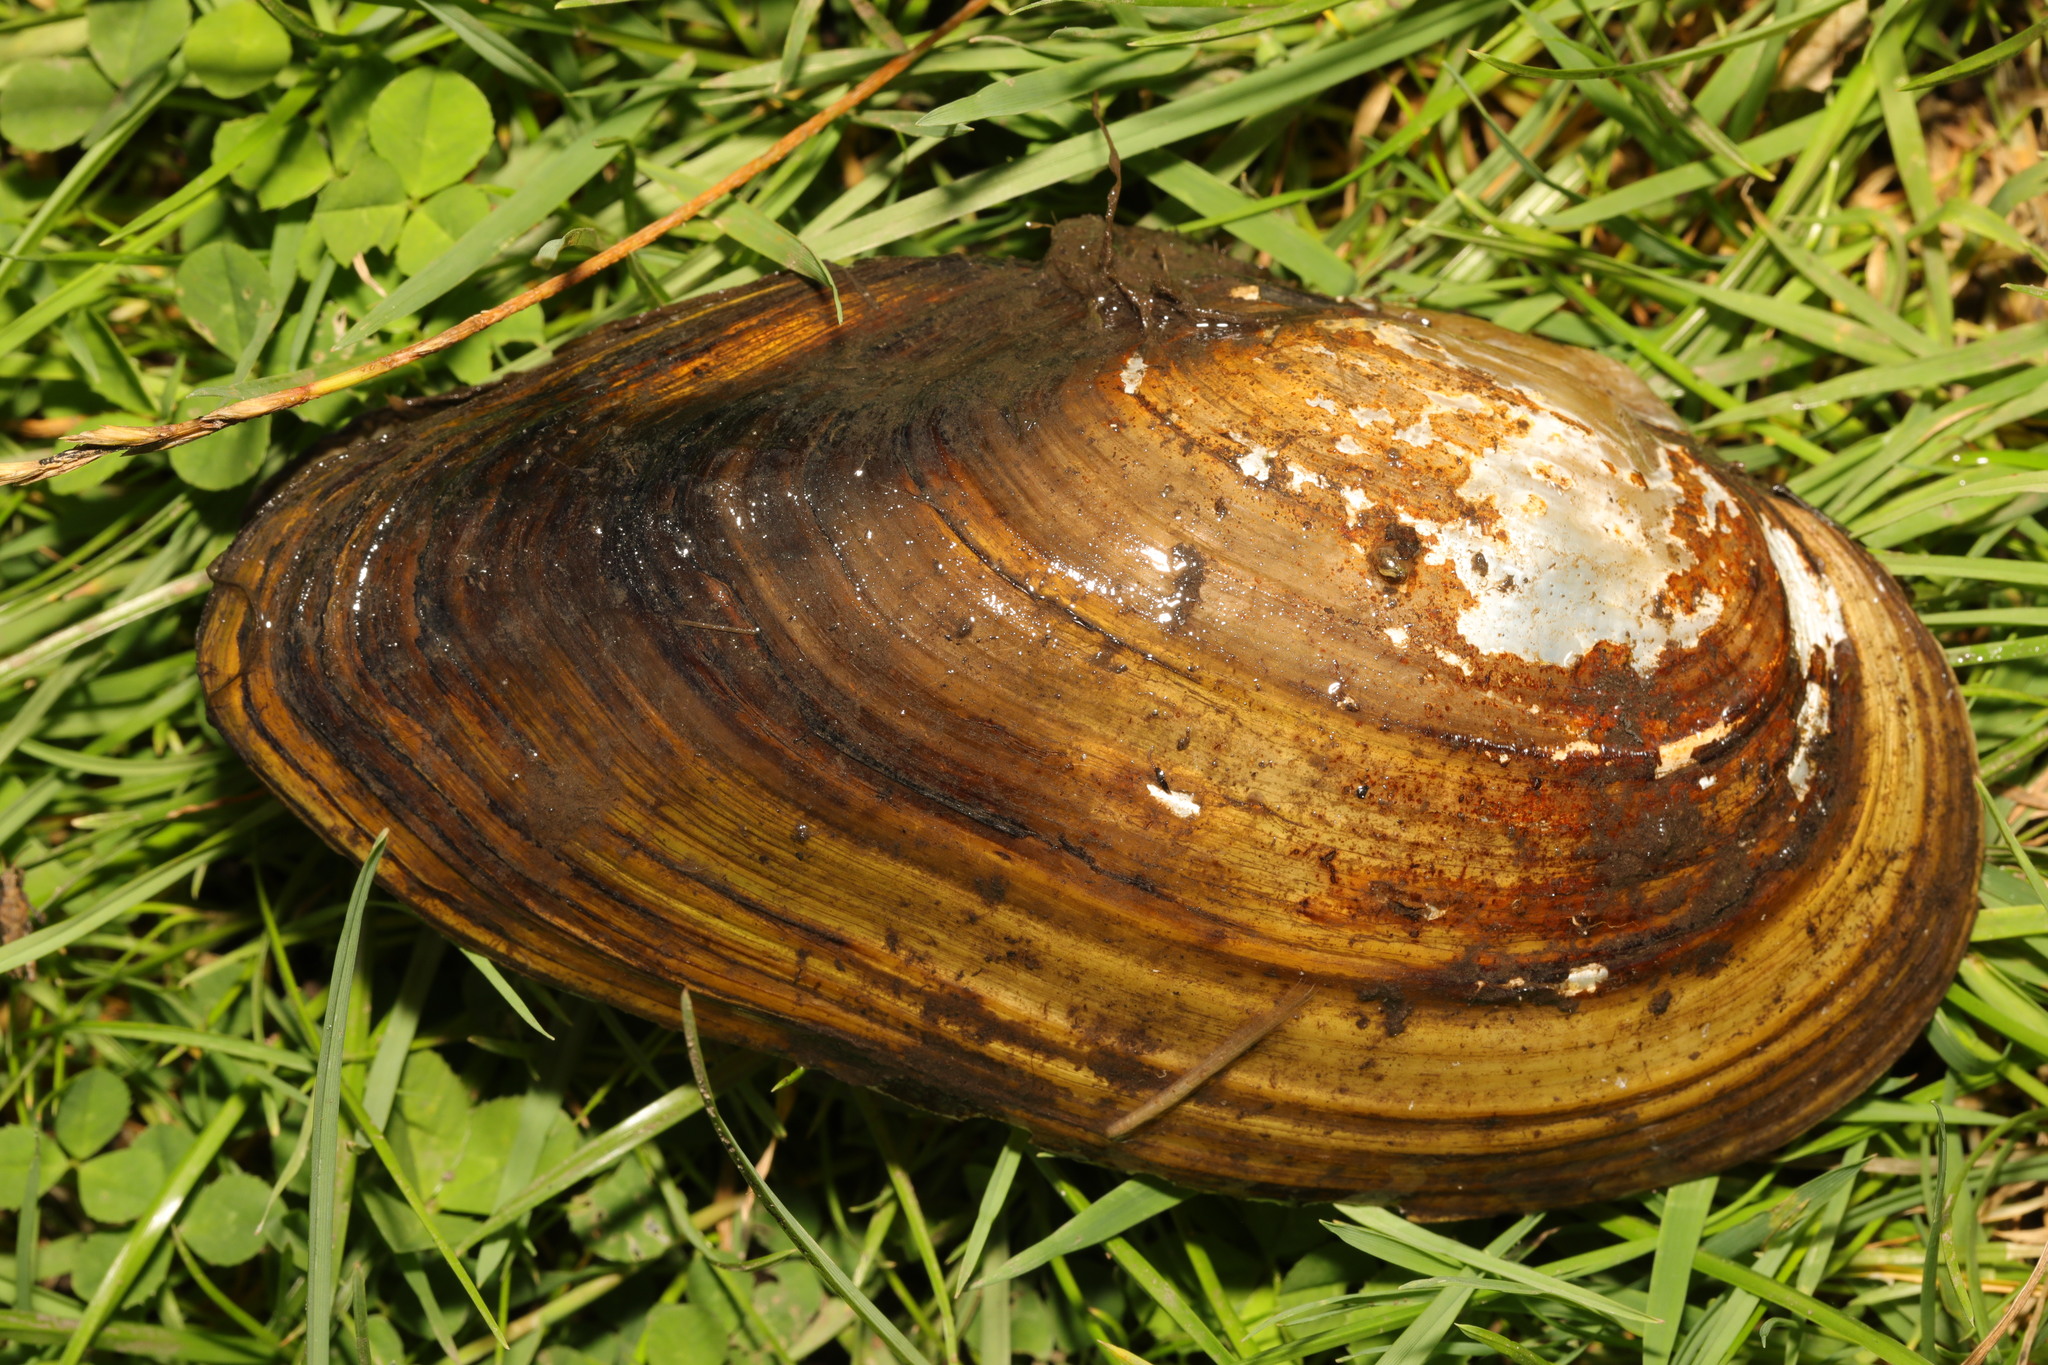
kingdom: Animalia
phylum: Mollusca
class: Bivalvia
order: Unionida
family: Unionidae
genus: Anodonta
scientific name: Anodonta anatina
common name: Duck mussel
